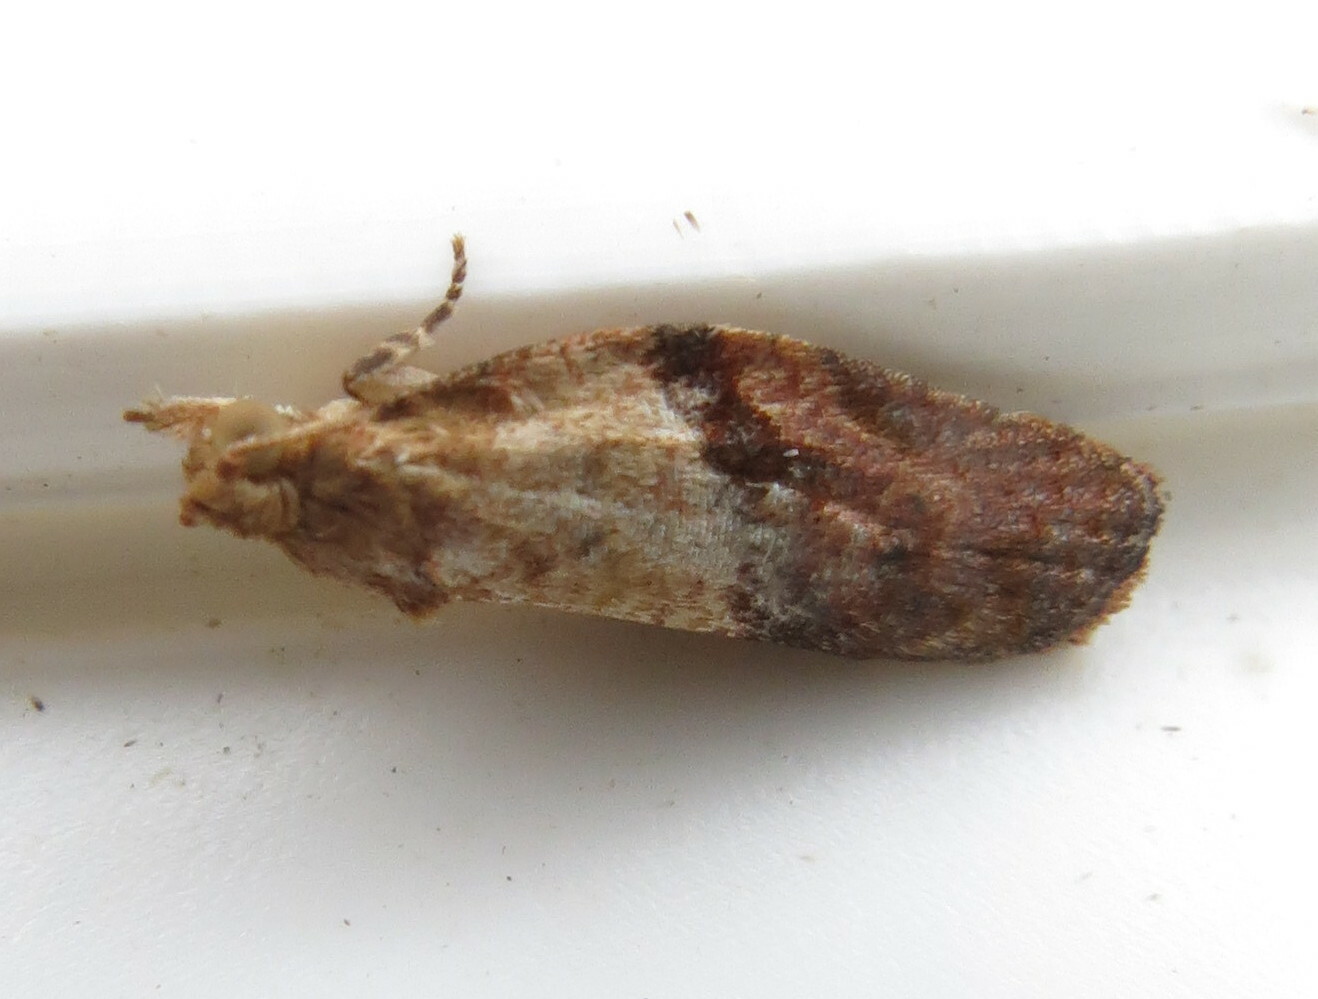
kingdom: Animalia
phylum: Arthropoda
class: Insecta
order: Lepidoptera
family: Tortricidae
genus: Epiphyas
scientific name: Epiphyas postvittana
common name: Light brown apple moth
